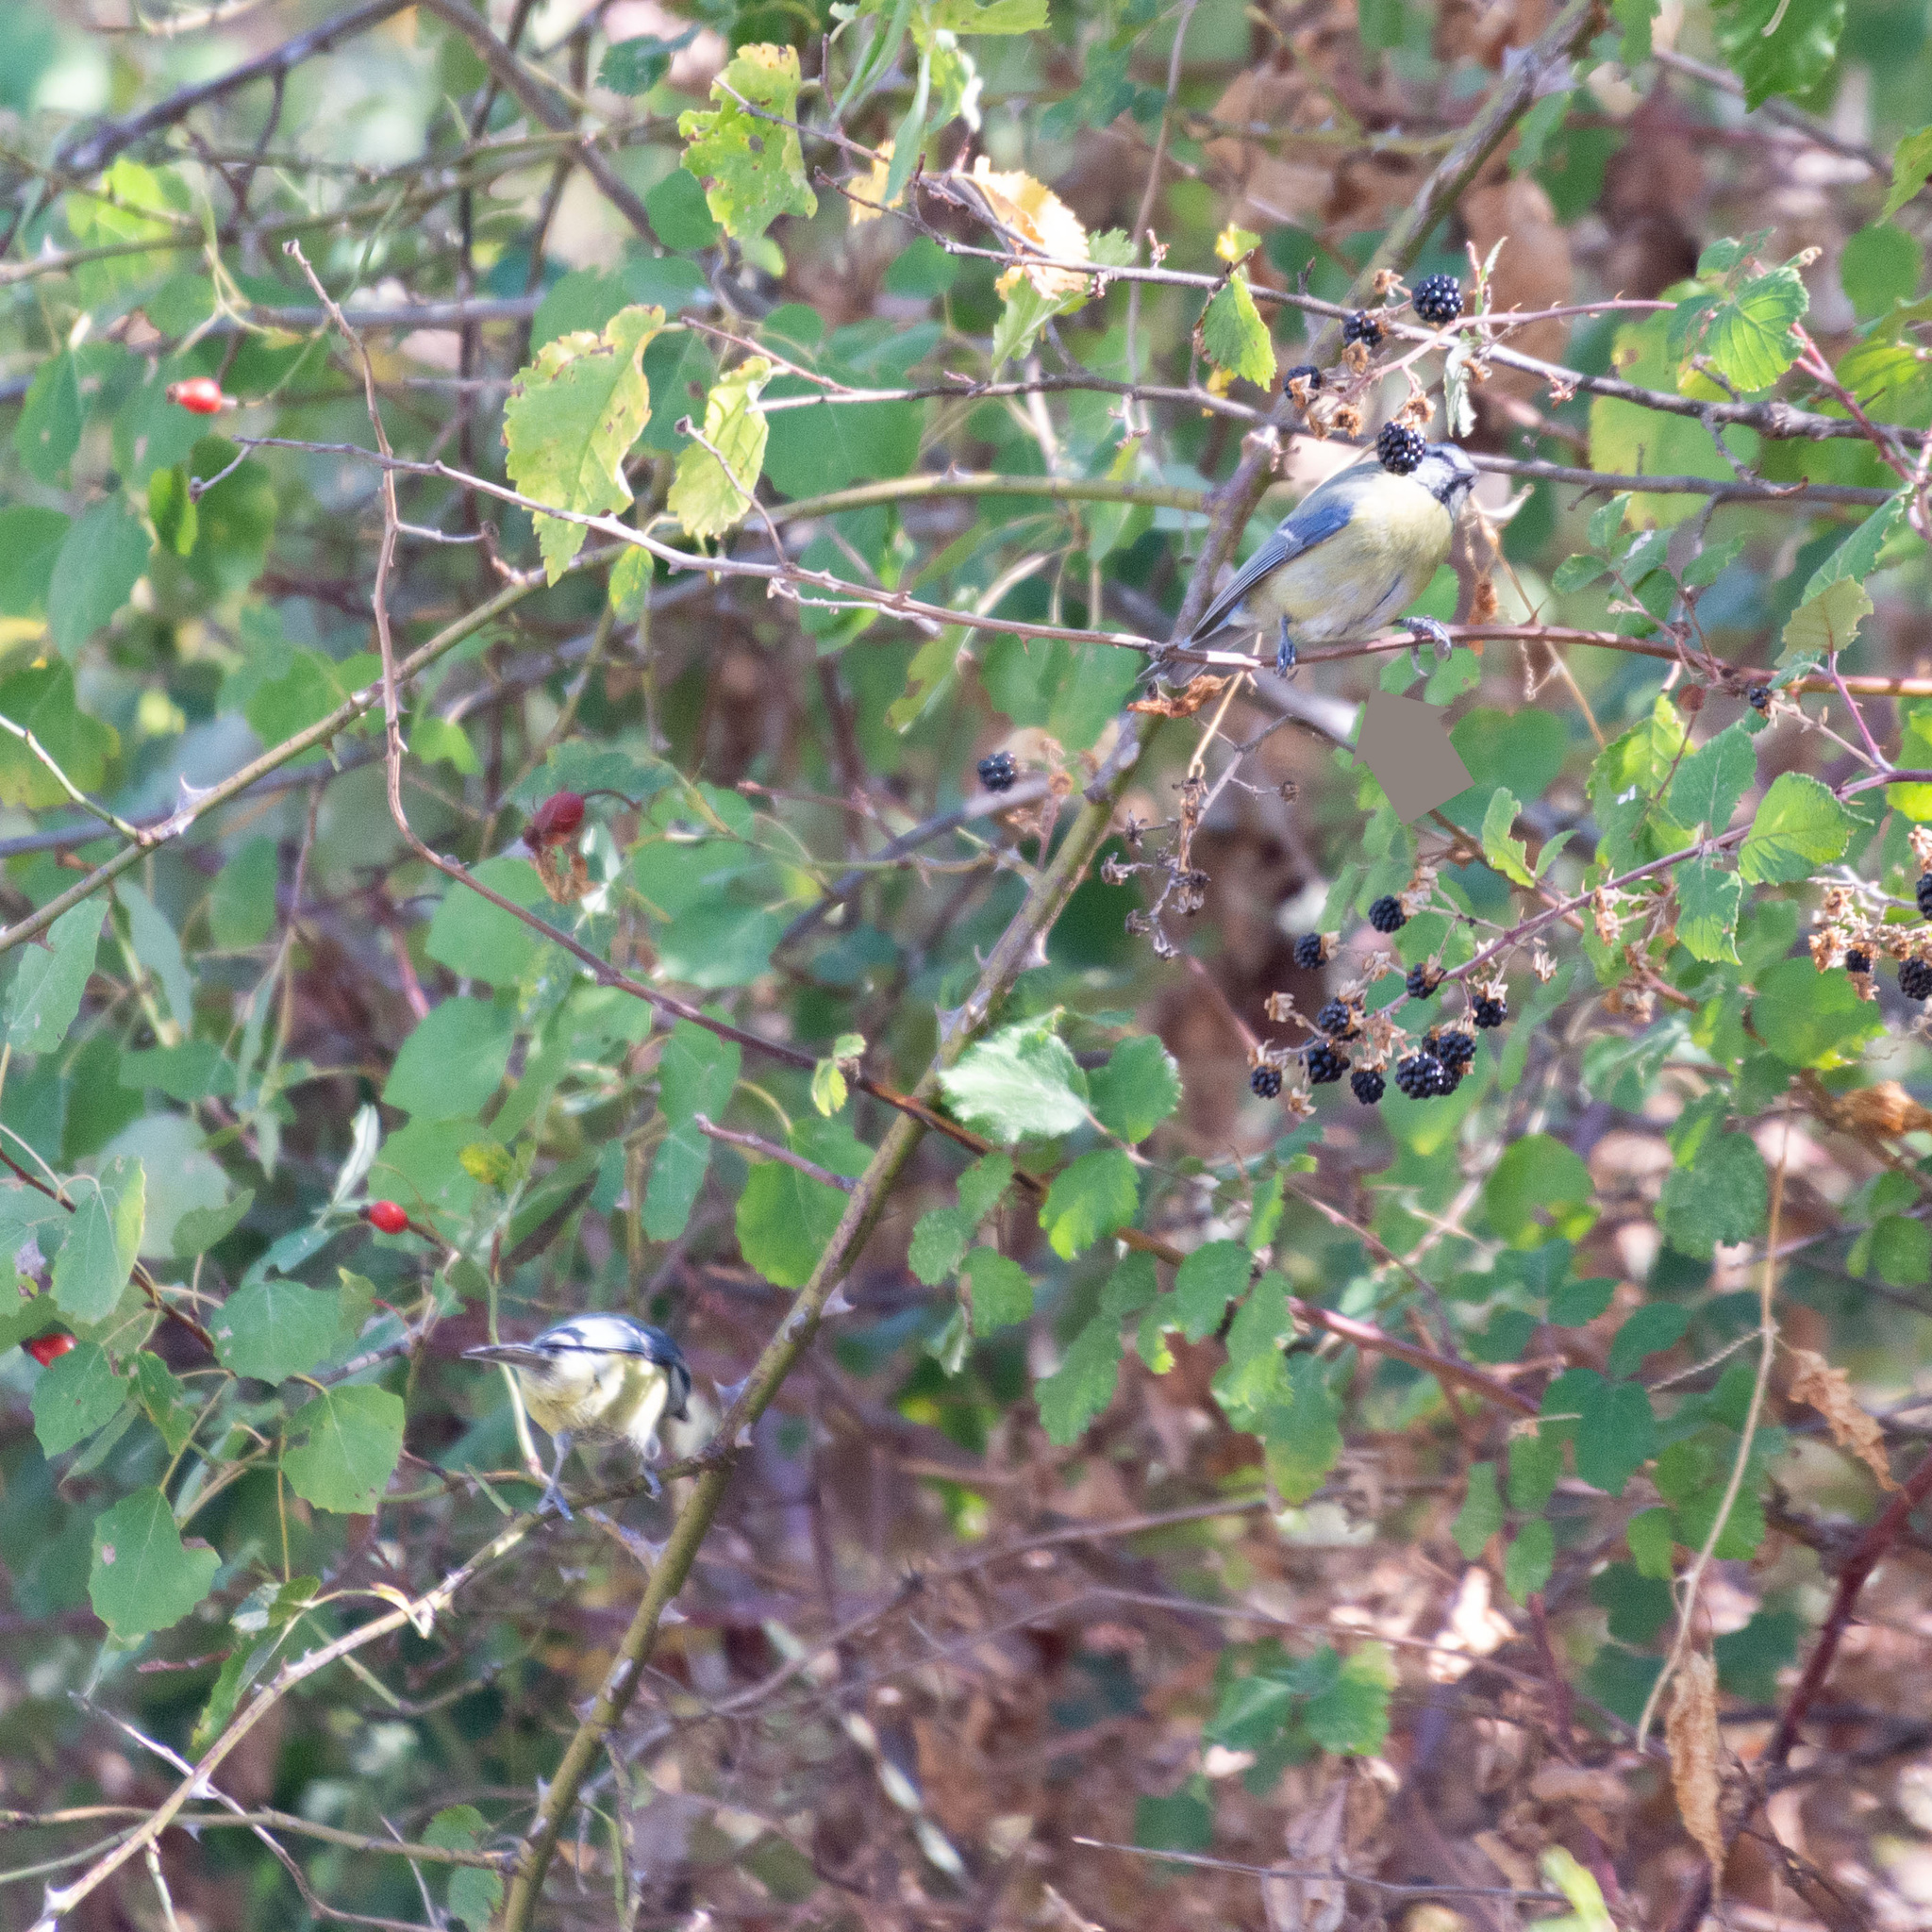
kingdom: Animalia
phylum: Chordata
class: Aves
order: Passeriformes
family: Paridae
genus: Cyanistes
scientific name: Cyanistes caeruleus
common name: Eurasian blue tit
